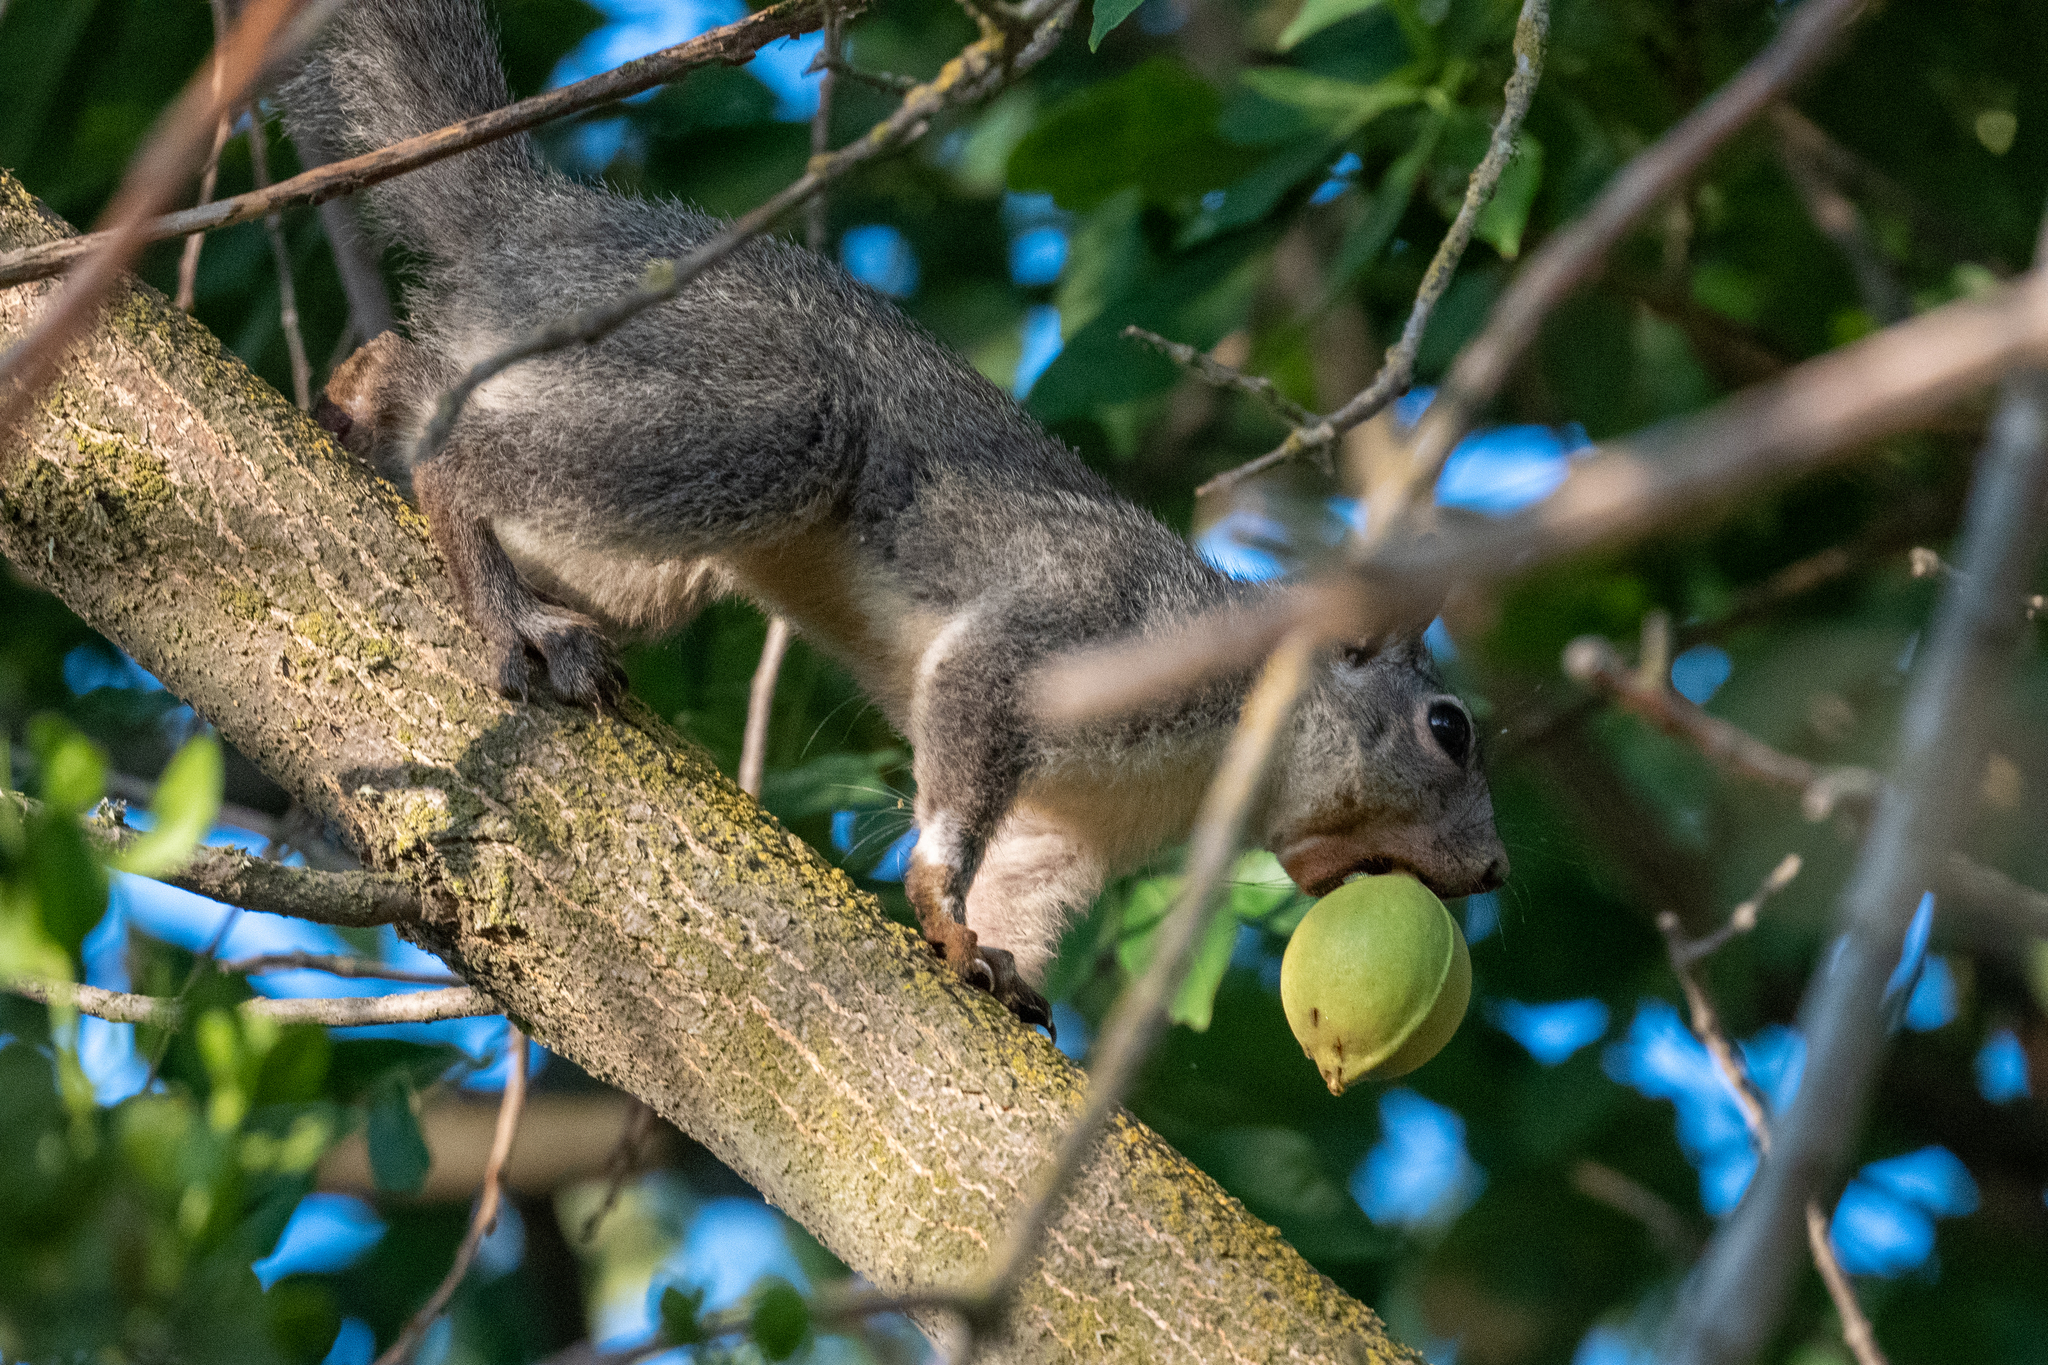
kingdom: Animalia
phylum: Chordata
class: Mammalia
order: Rodentia
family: Sciuridae
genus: Sciurus
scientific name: Sciurus griseus
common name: Western gray squirrel
